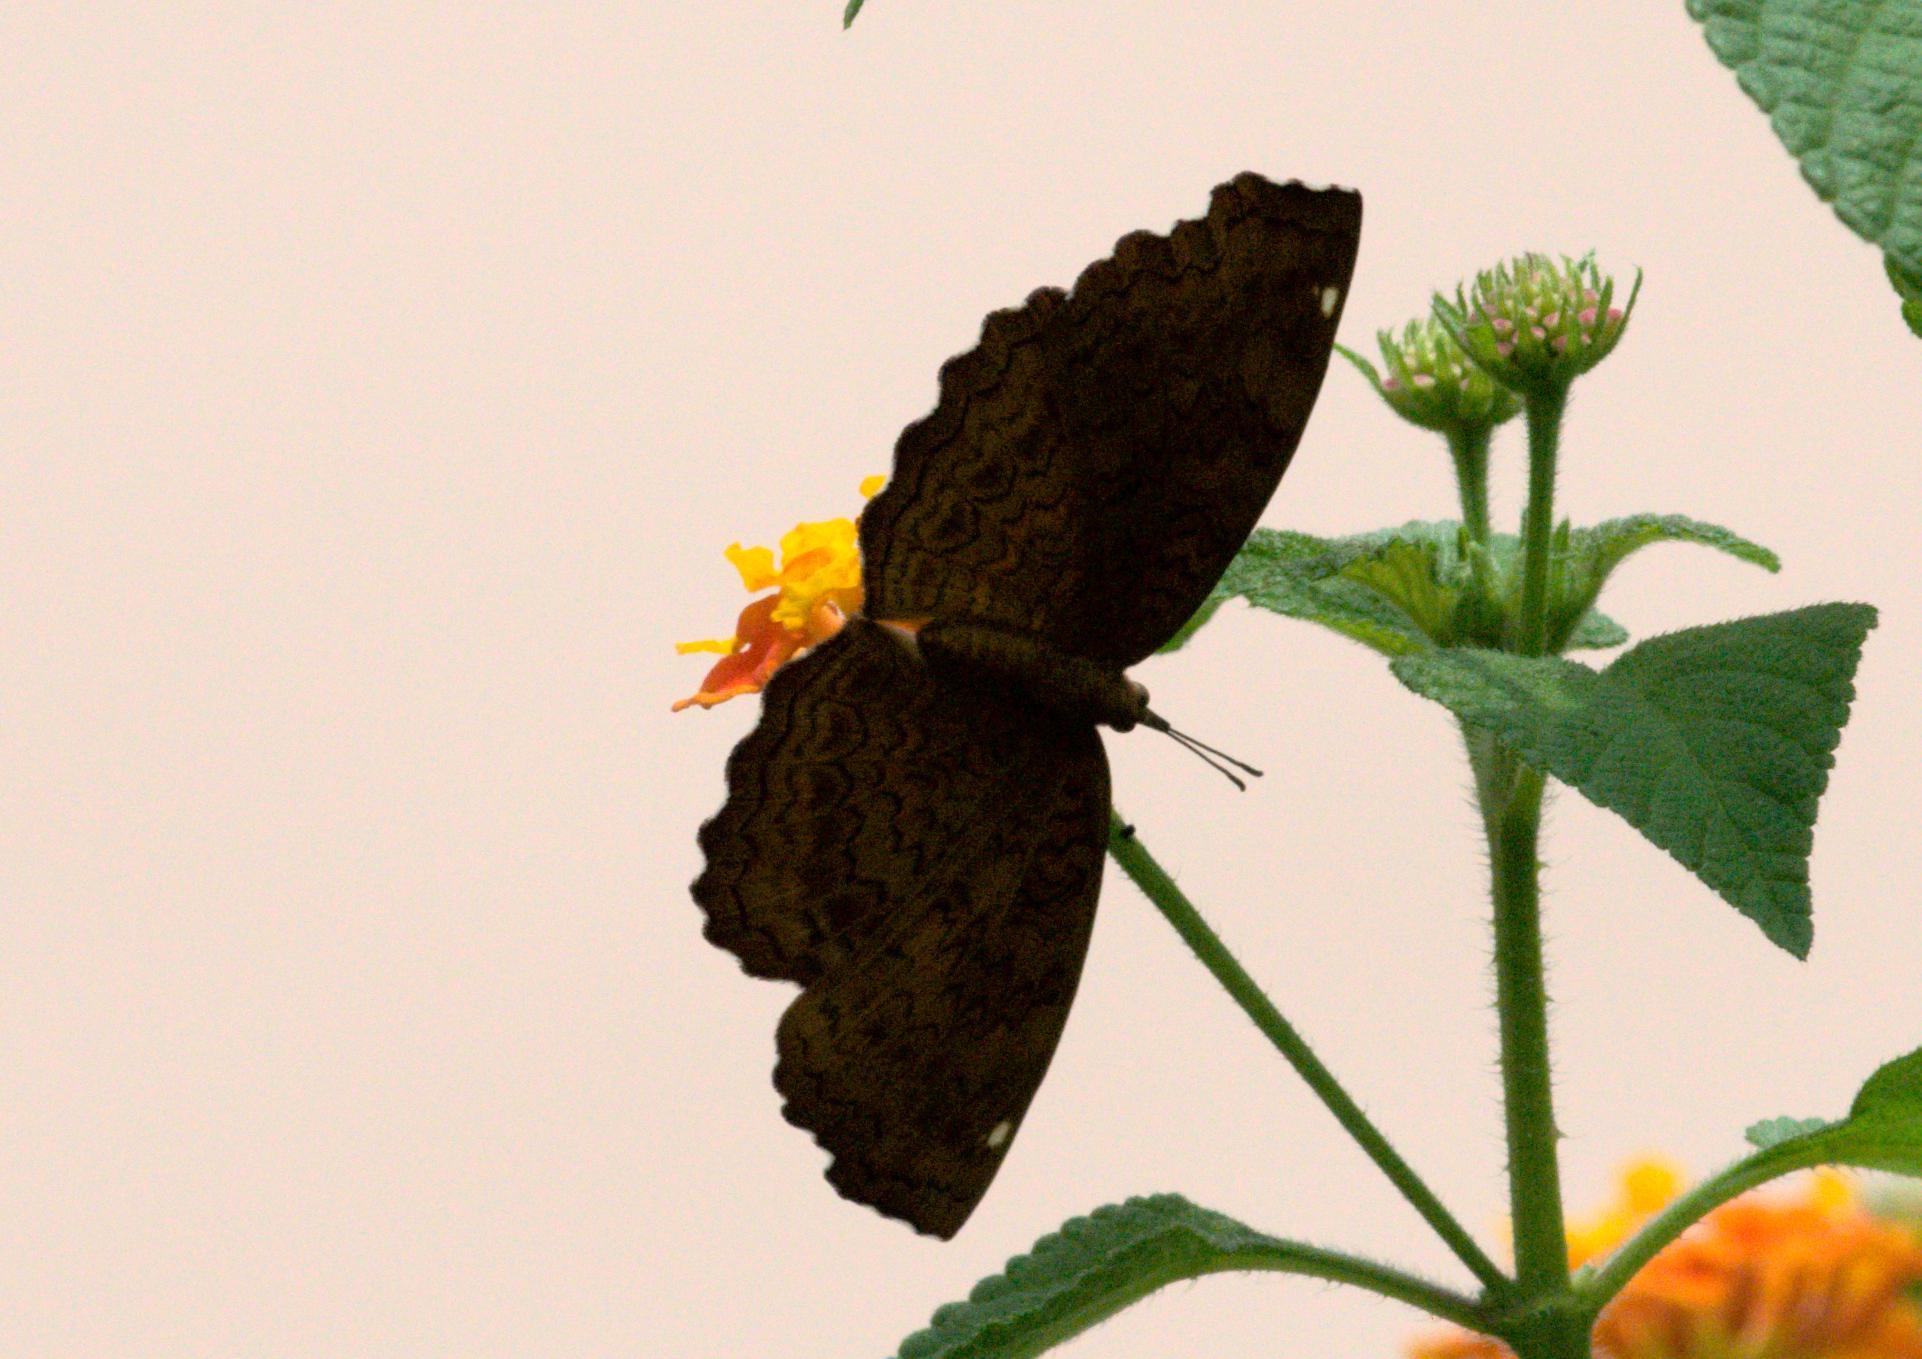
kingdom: Animalia
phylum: Arthropoda
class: Insecta
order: Lepidoptera
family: Nymphalidae
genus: Ariadne
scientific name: Ariadne merione
